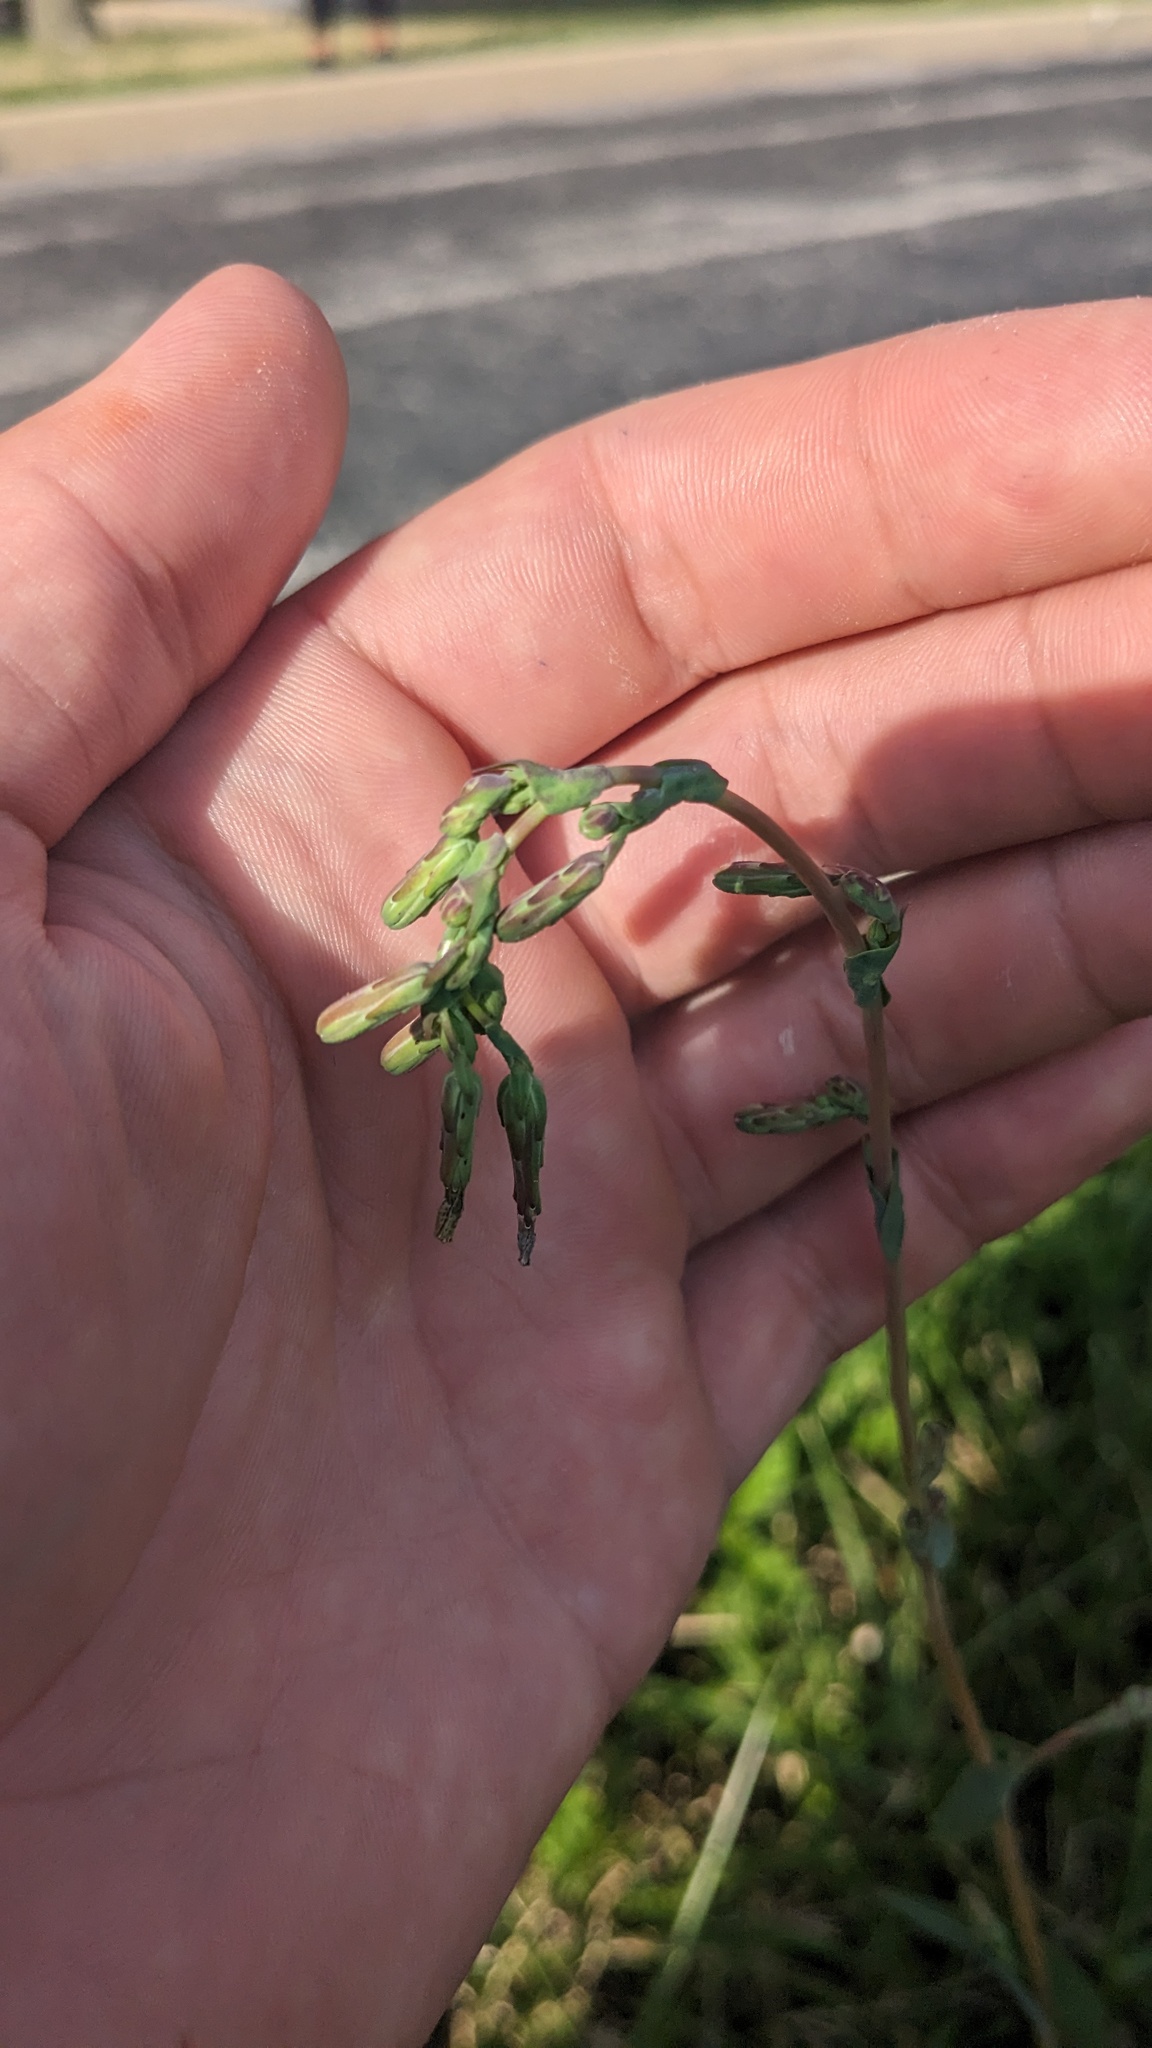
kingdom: Plantae
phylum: Tracheophyta
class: Magnoliopsida
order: Asterales
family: Asteraceae
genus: Lactuca
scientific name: Lactuca serriola
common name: Prickly lettuce
